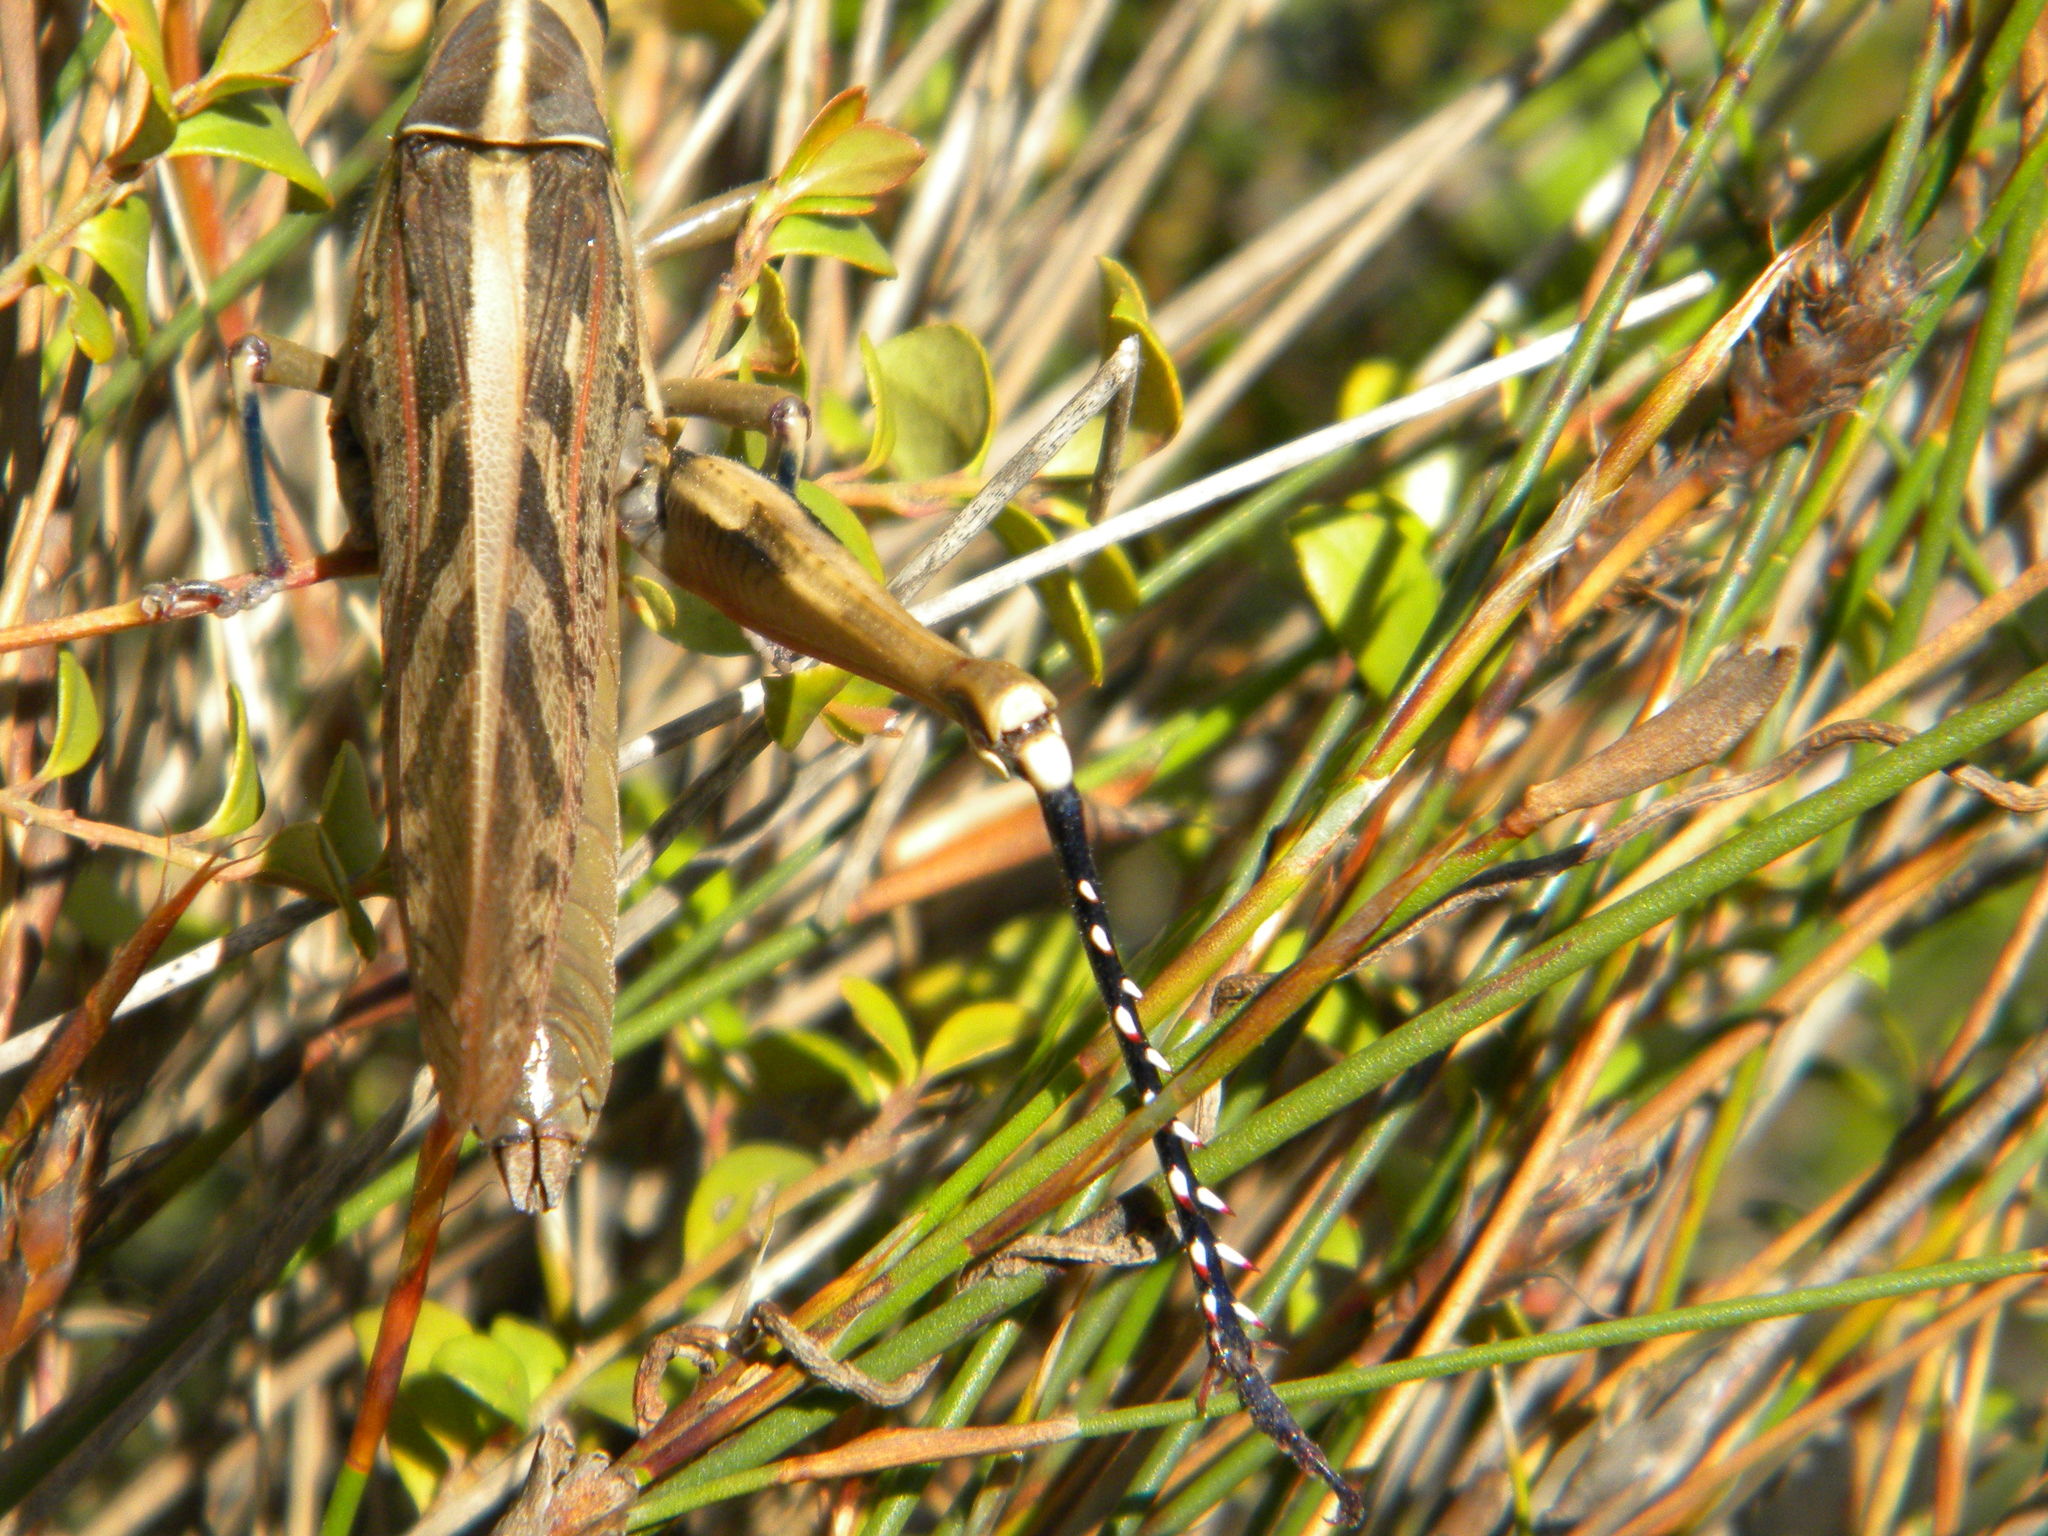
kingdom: Animalia
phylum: Arthropoda
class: Insecta
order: Orthoptera
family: Acrididae
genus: Acanthacris
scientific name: Acanthacris ruficornis
